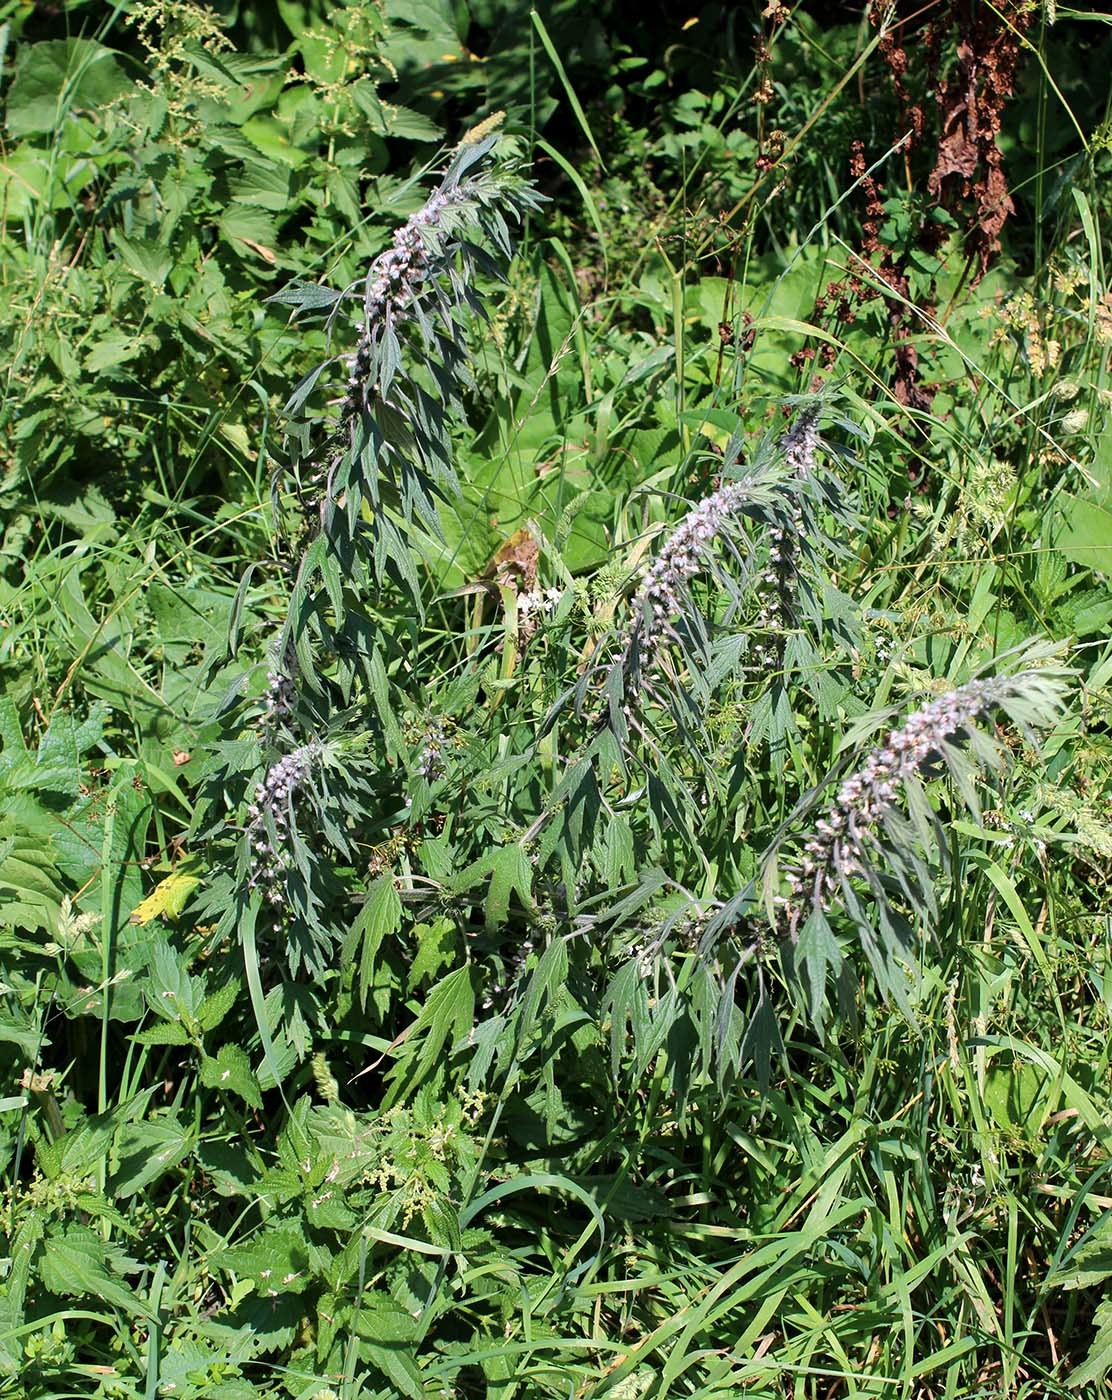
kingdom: Plantae
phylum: Tracheophyta
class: Magnoliopsida
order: Lamiales
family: Lamiaceae
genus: Leonurus
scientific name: Leonurus quinquelobatus
